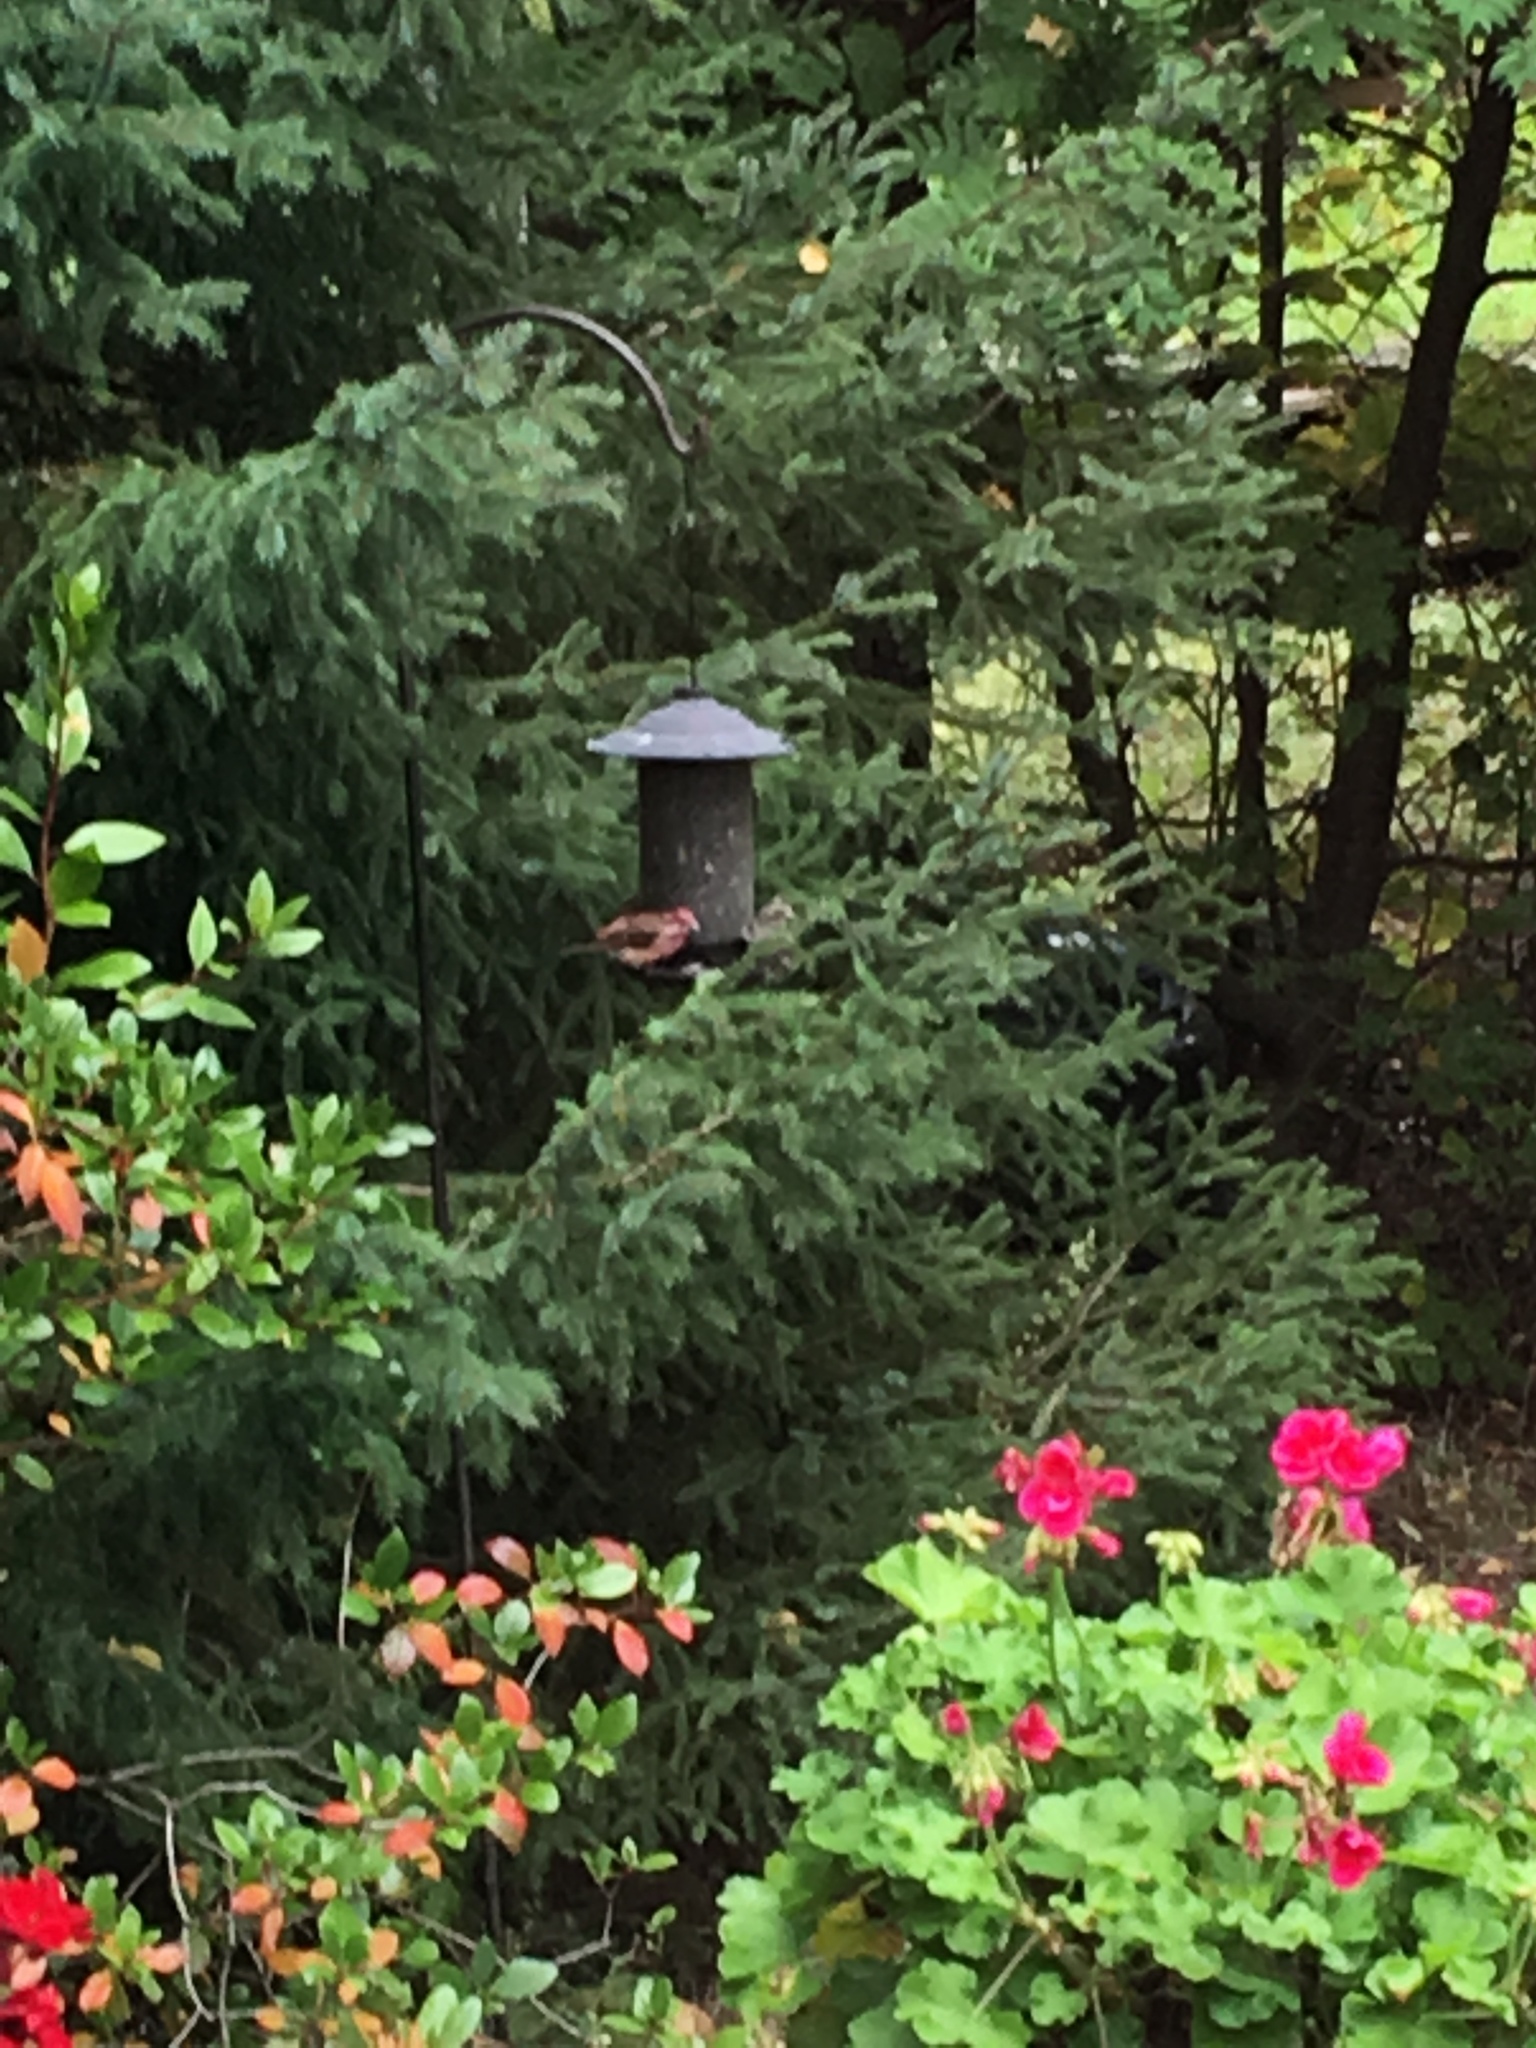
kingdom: Animalia
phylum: Chordata
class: Aves
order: Passeriformes
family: Fringillidae
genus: Haemorhous
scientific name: Haemorhous purpureus
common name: Purple finch
